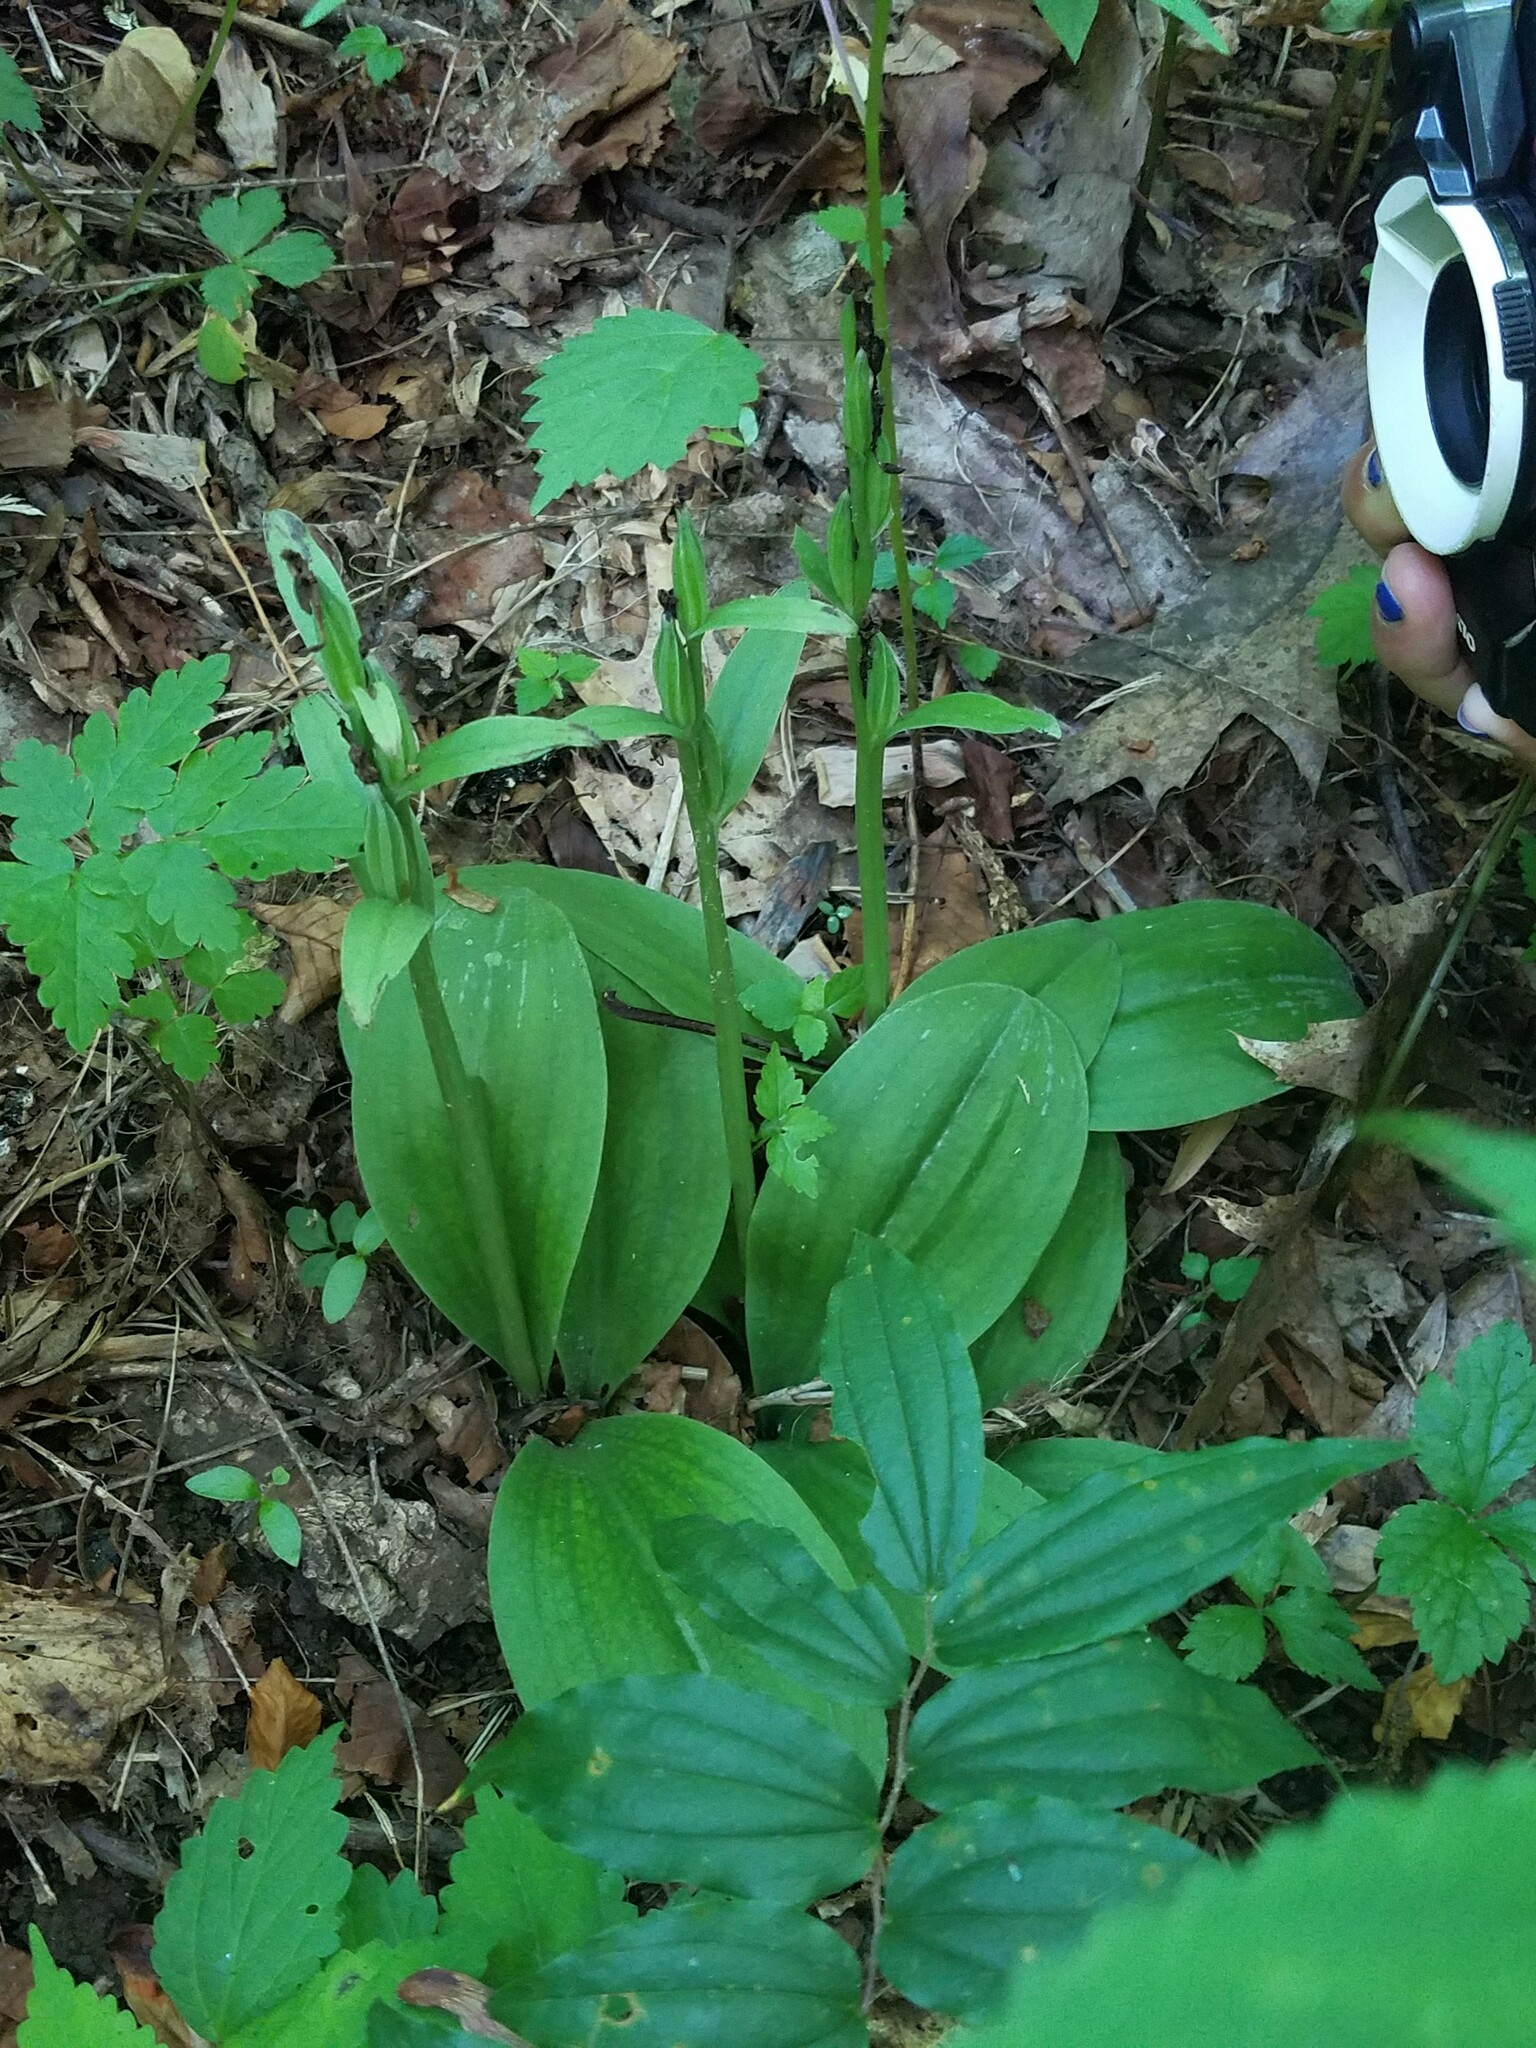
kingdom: Plantae
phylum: Tracheophyta
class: Liliopsida
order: Asparagales
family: Orchidaceae
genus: Galearis
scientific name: Galearis spectabilis
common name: Purple-hooded orchis
